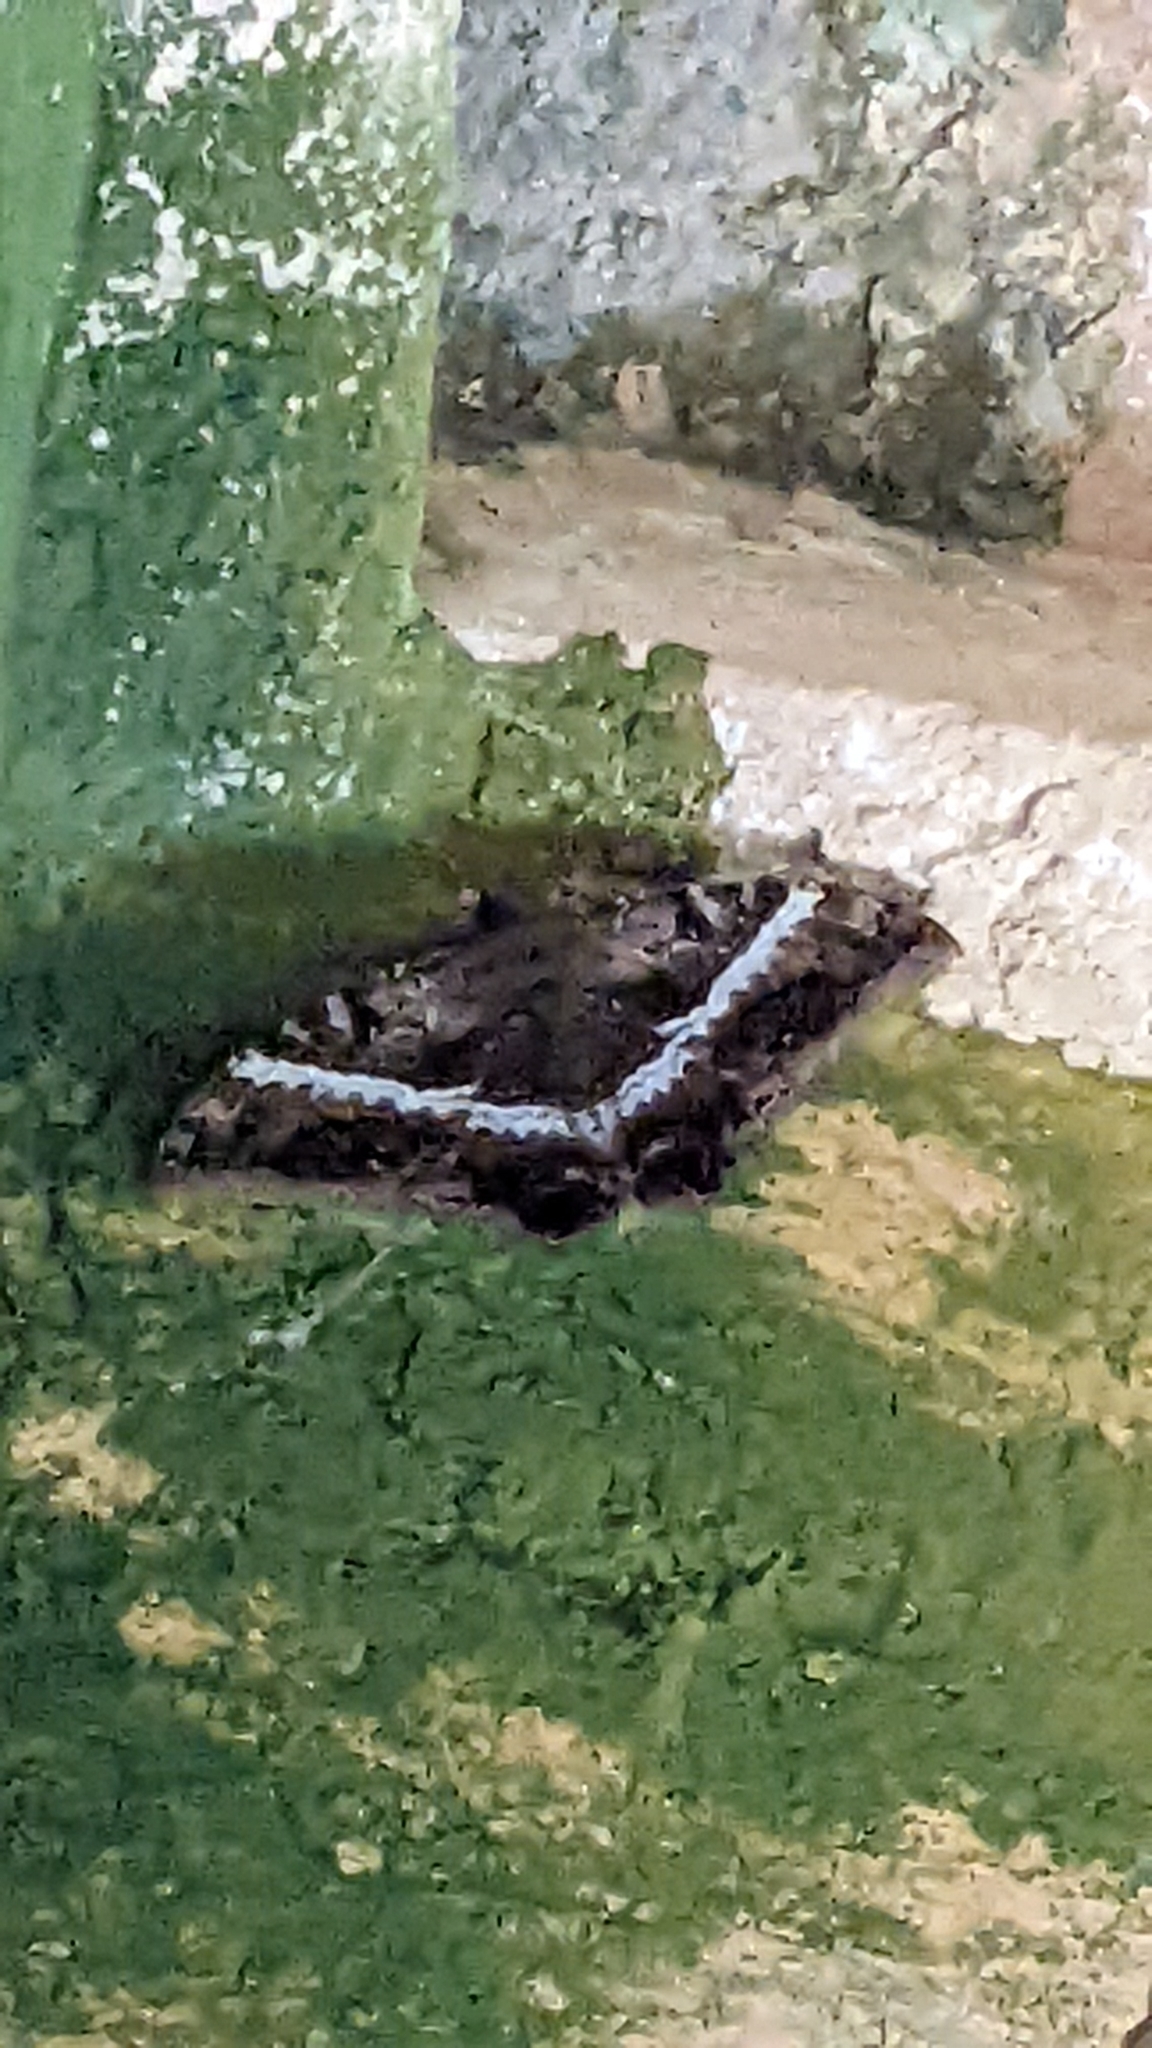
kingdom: Animalia
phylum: Arthropoda
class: Insecta
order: Lepidoptera
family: Erebidae
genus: Ascalapha
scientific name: Ascalapha odorata
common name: Black witch
